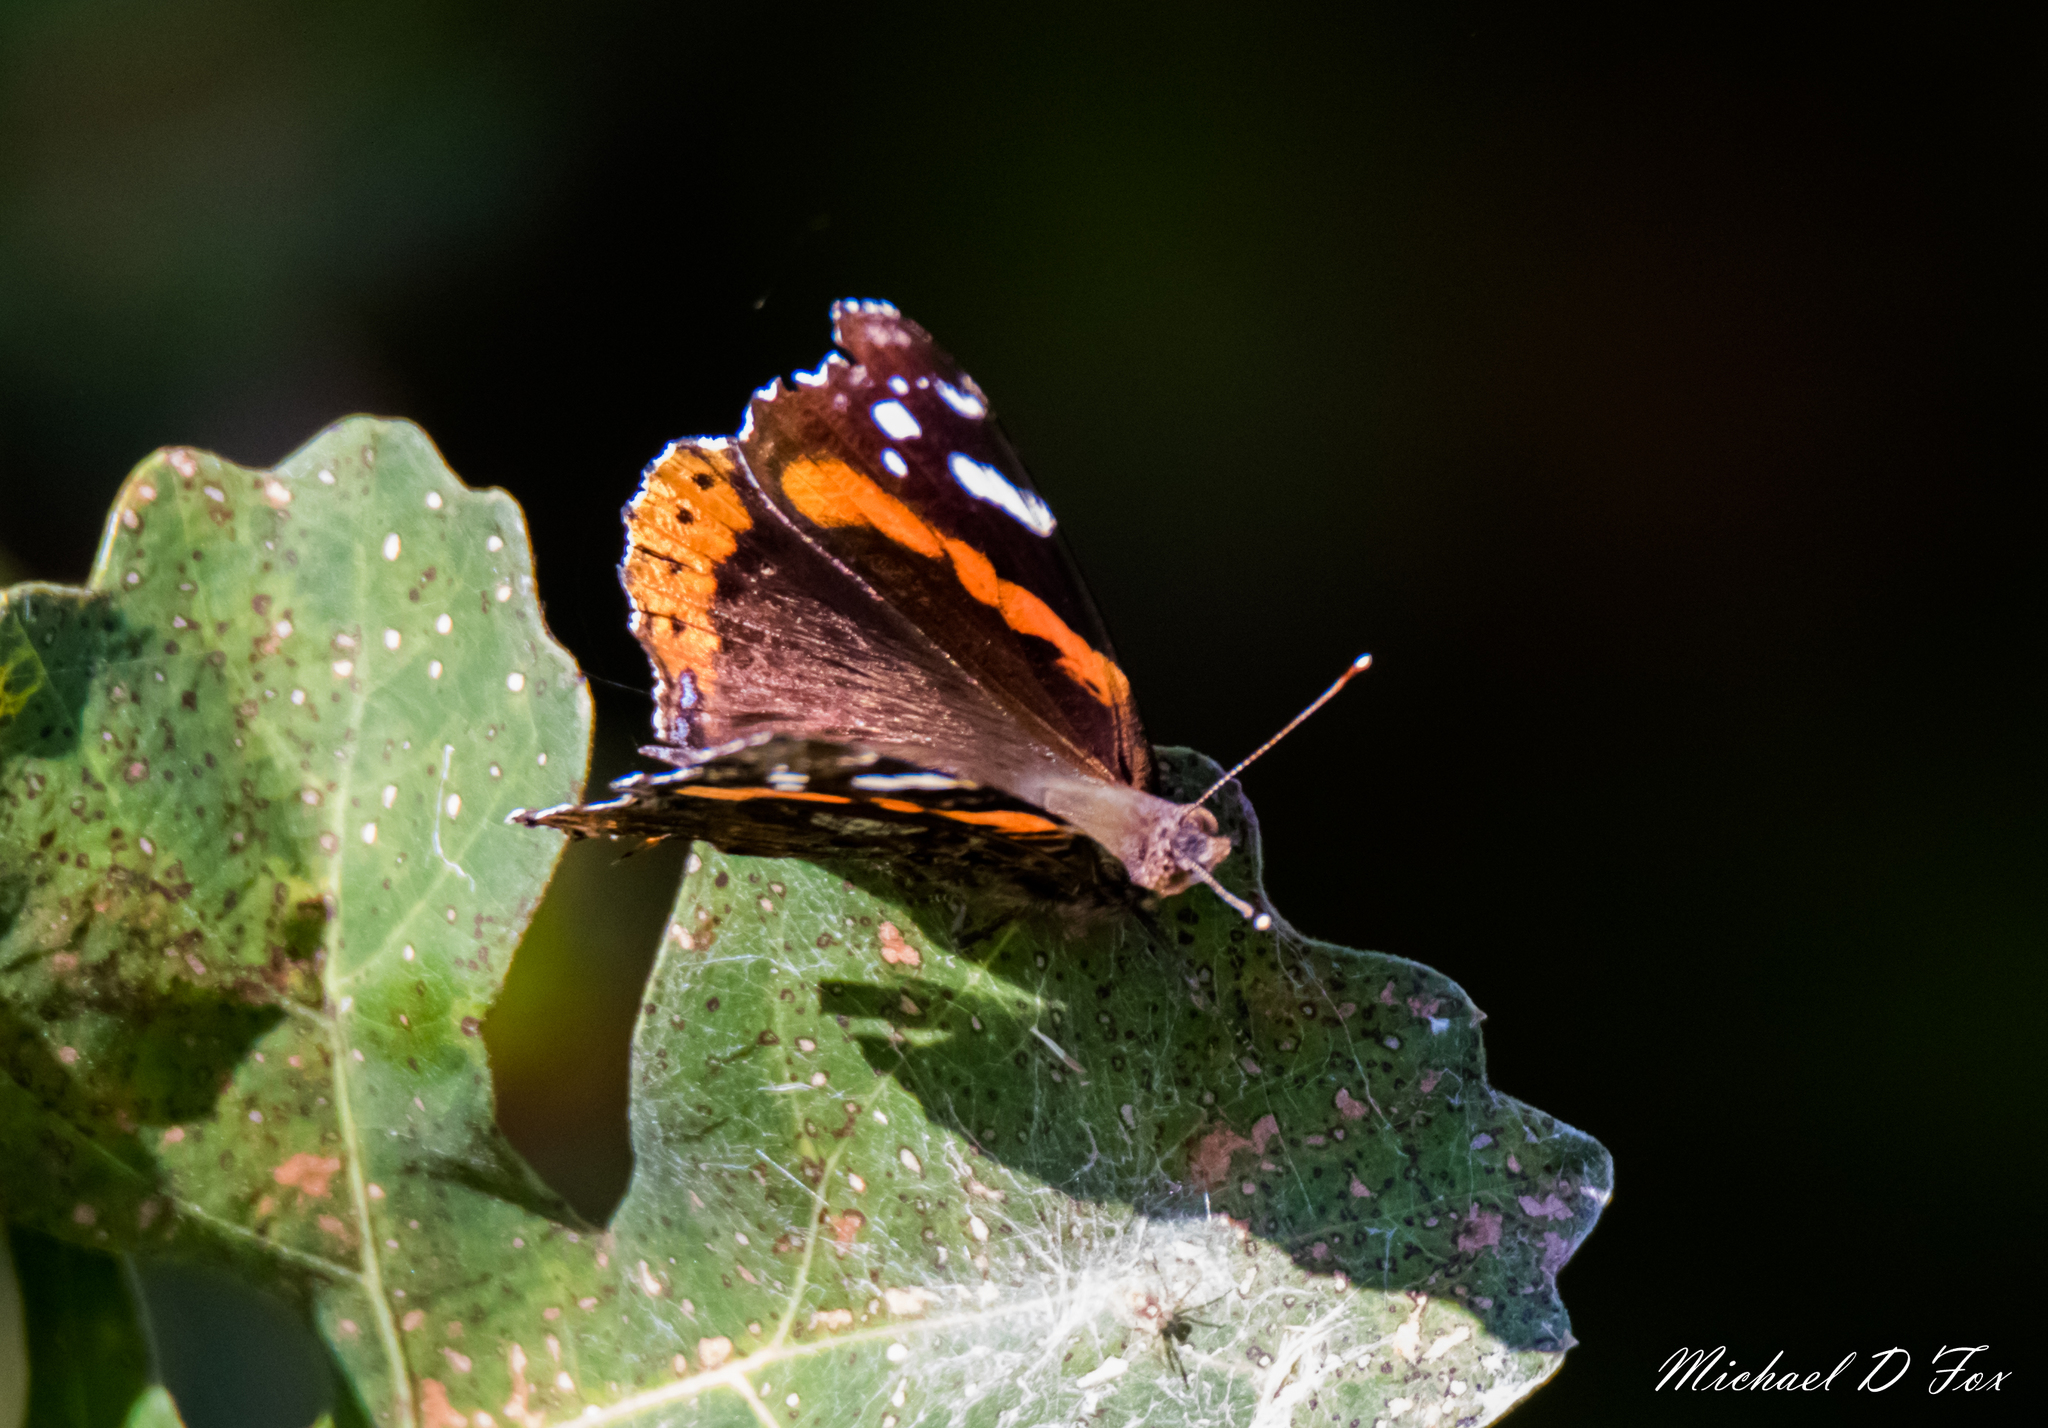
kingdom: Animalia
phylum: Arthropoda
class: Insecta
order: Lepidoptera
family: Nymphalidae
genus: Vanessa
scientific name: Vanessa atalanta
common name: Red admiral
